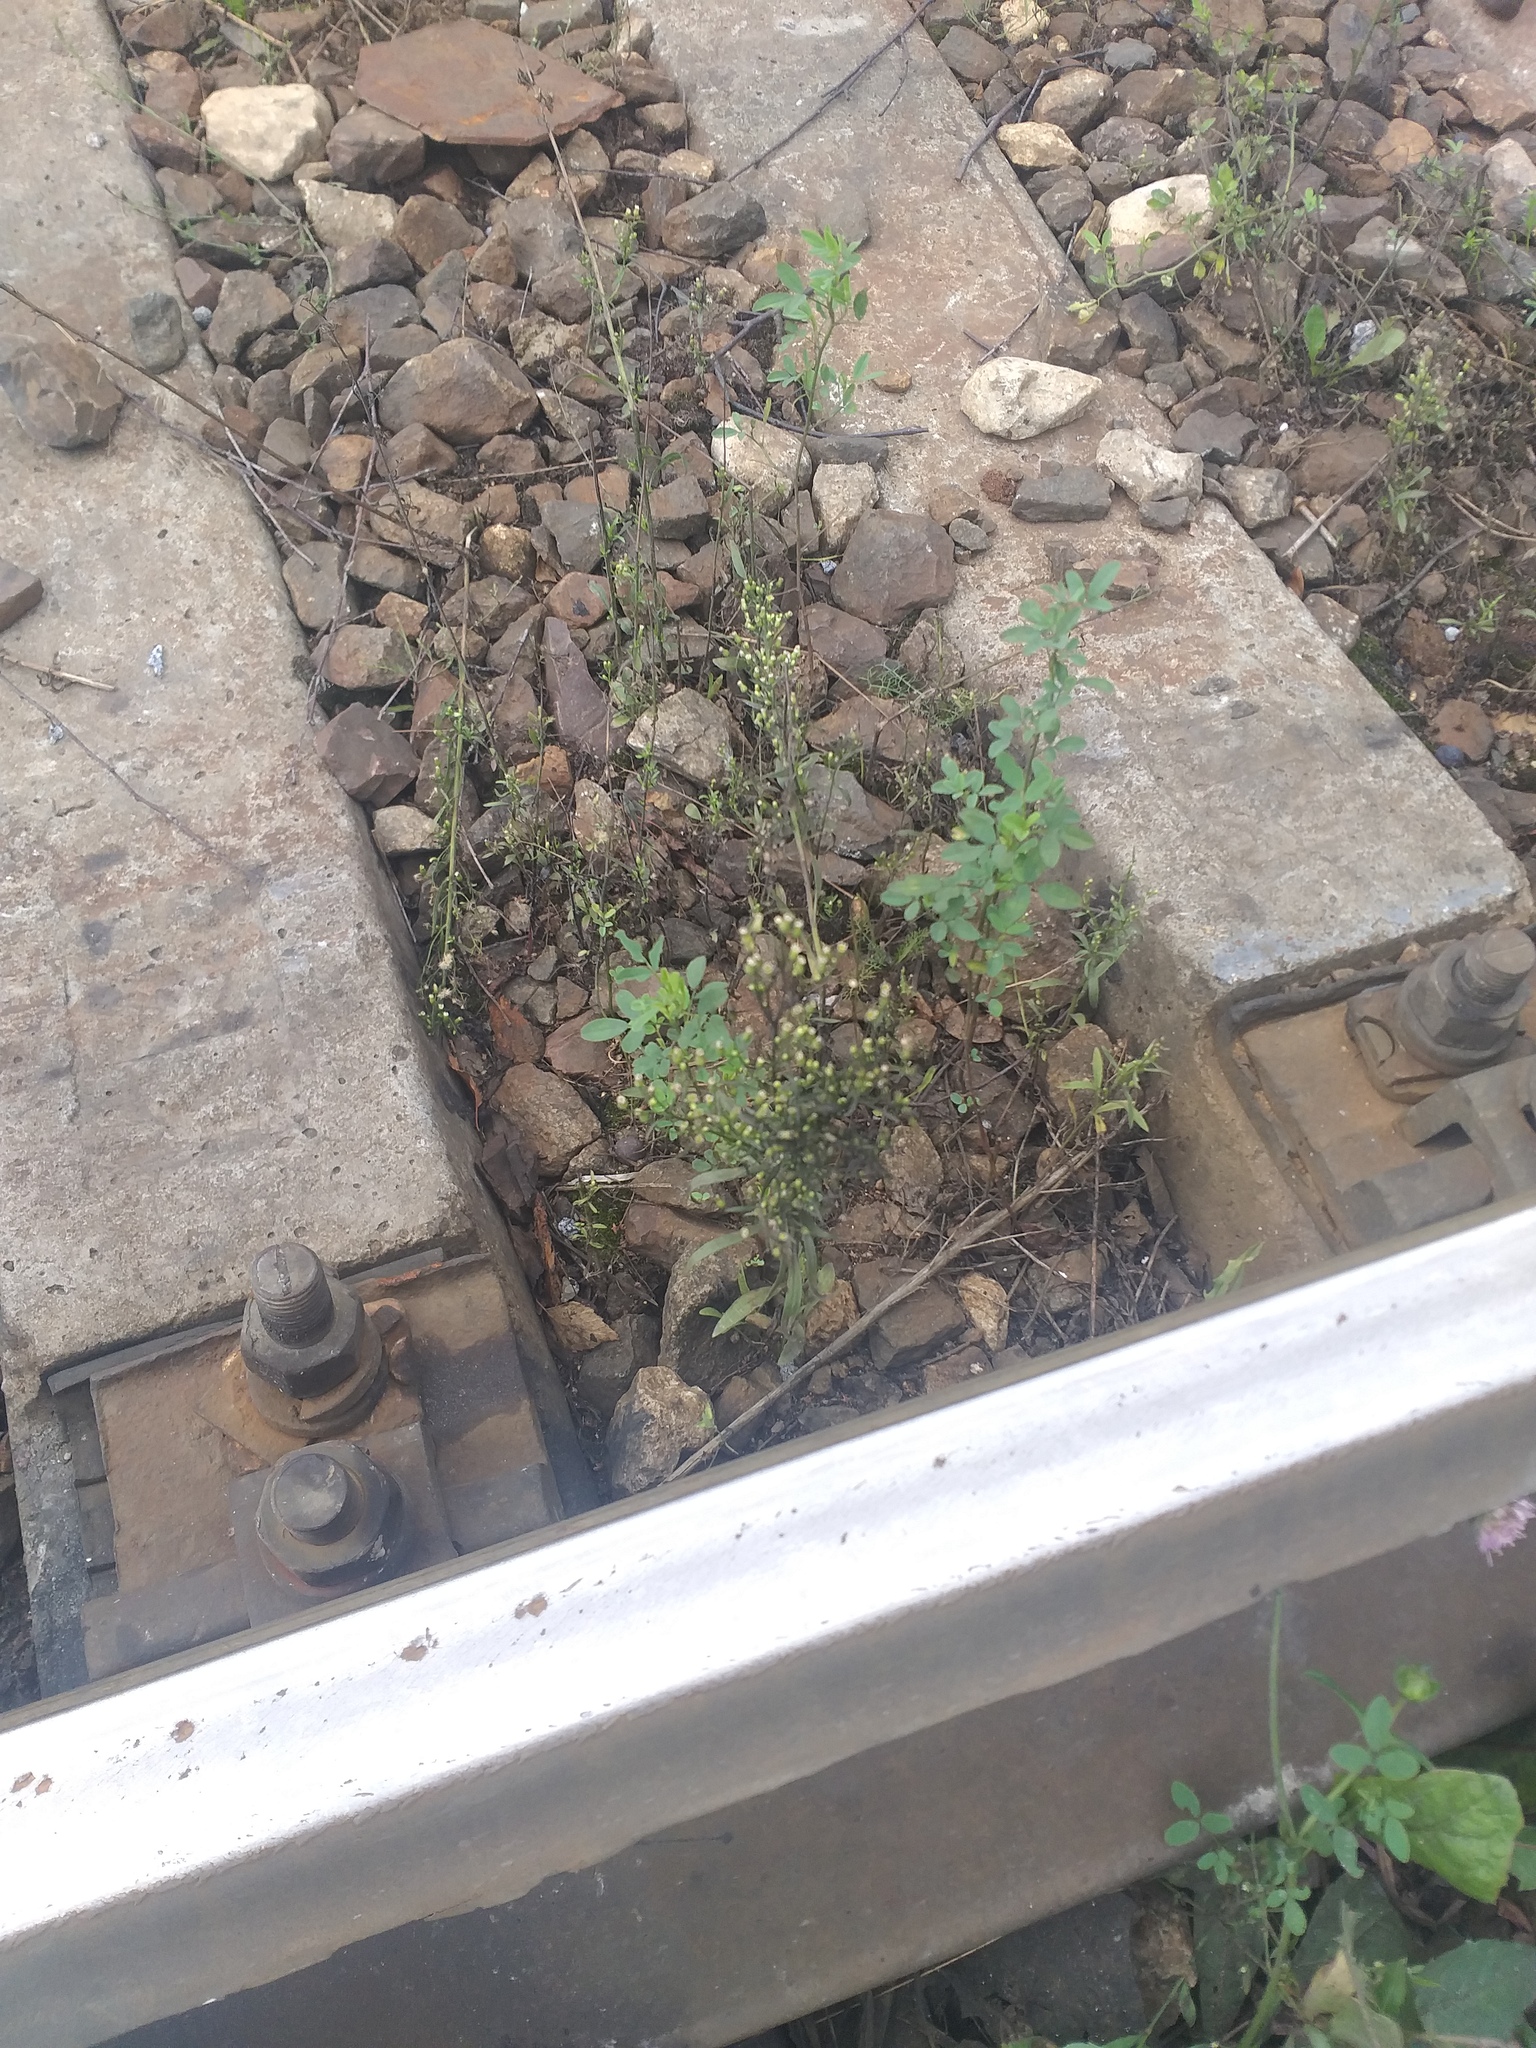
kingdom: Plantae
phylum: Tracheophyta
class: Magnoliopsida
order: Asterales
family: Asteraceae
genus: Erigeron
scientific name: Erigeron canadensis
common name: Canadian fleabane
